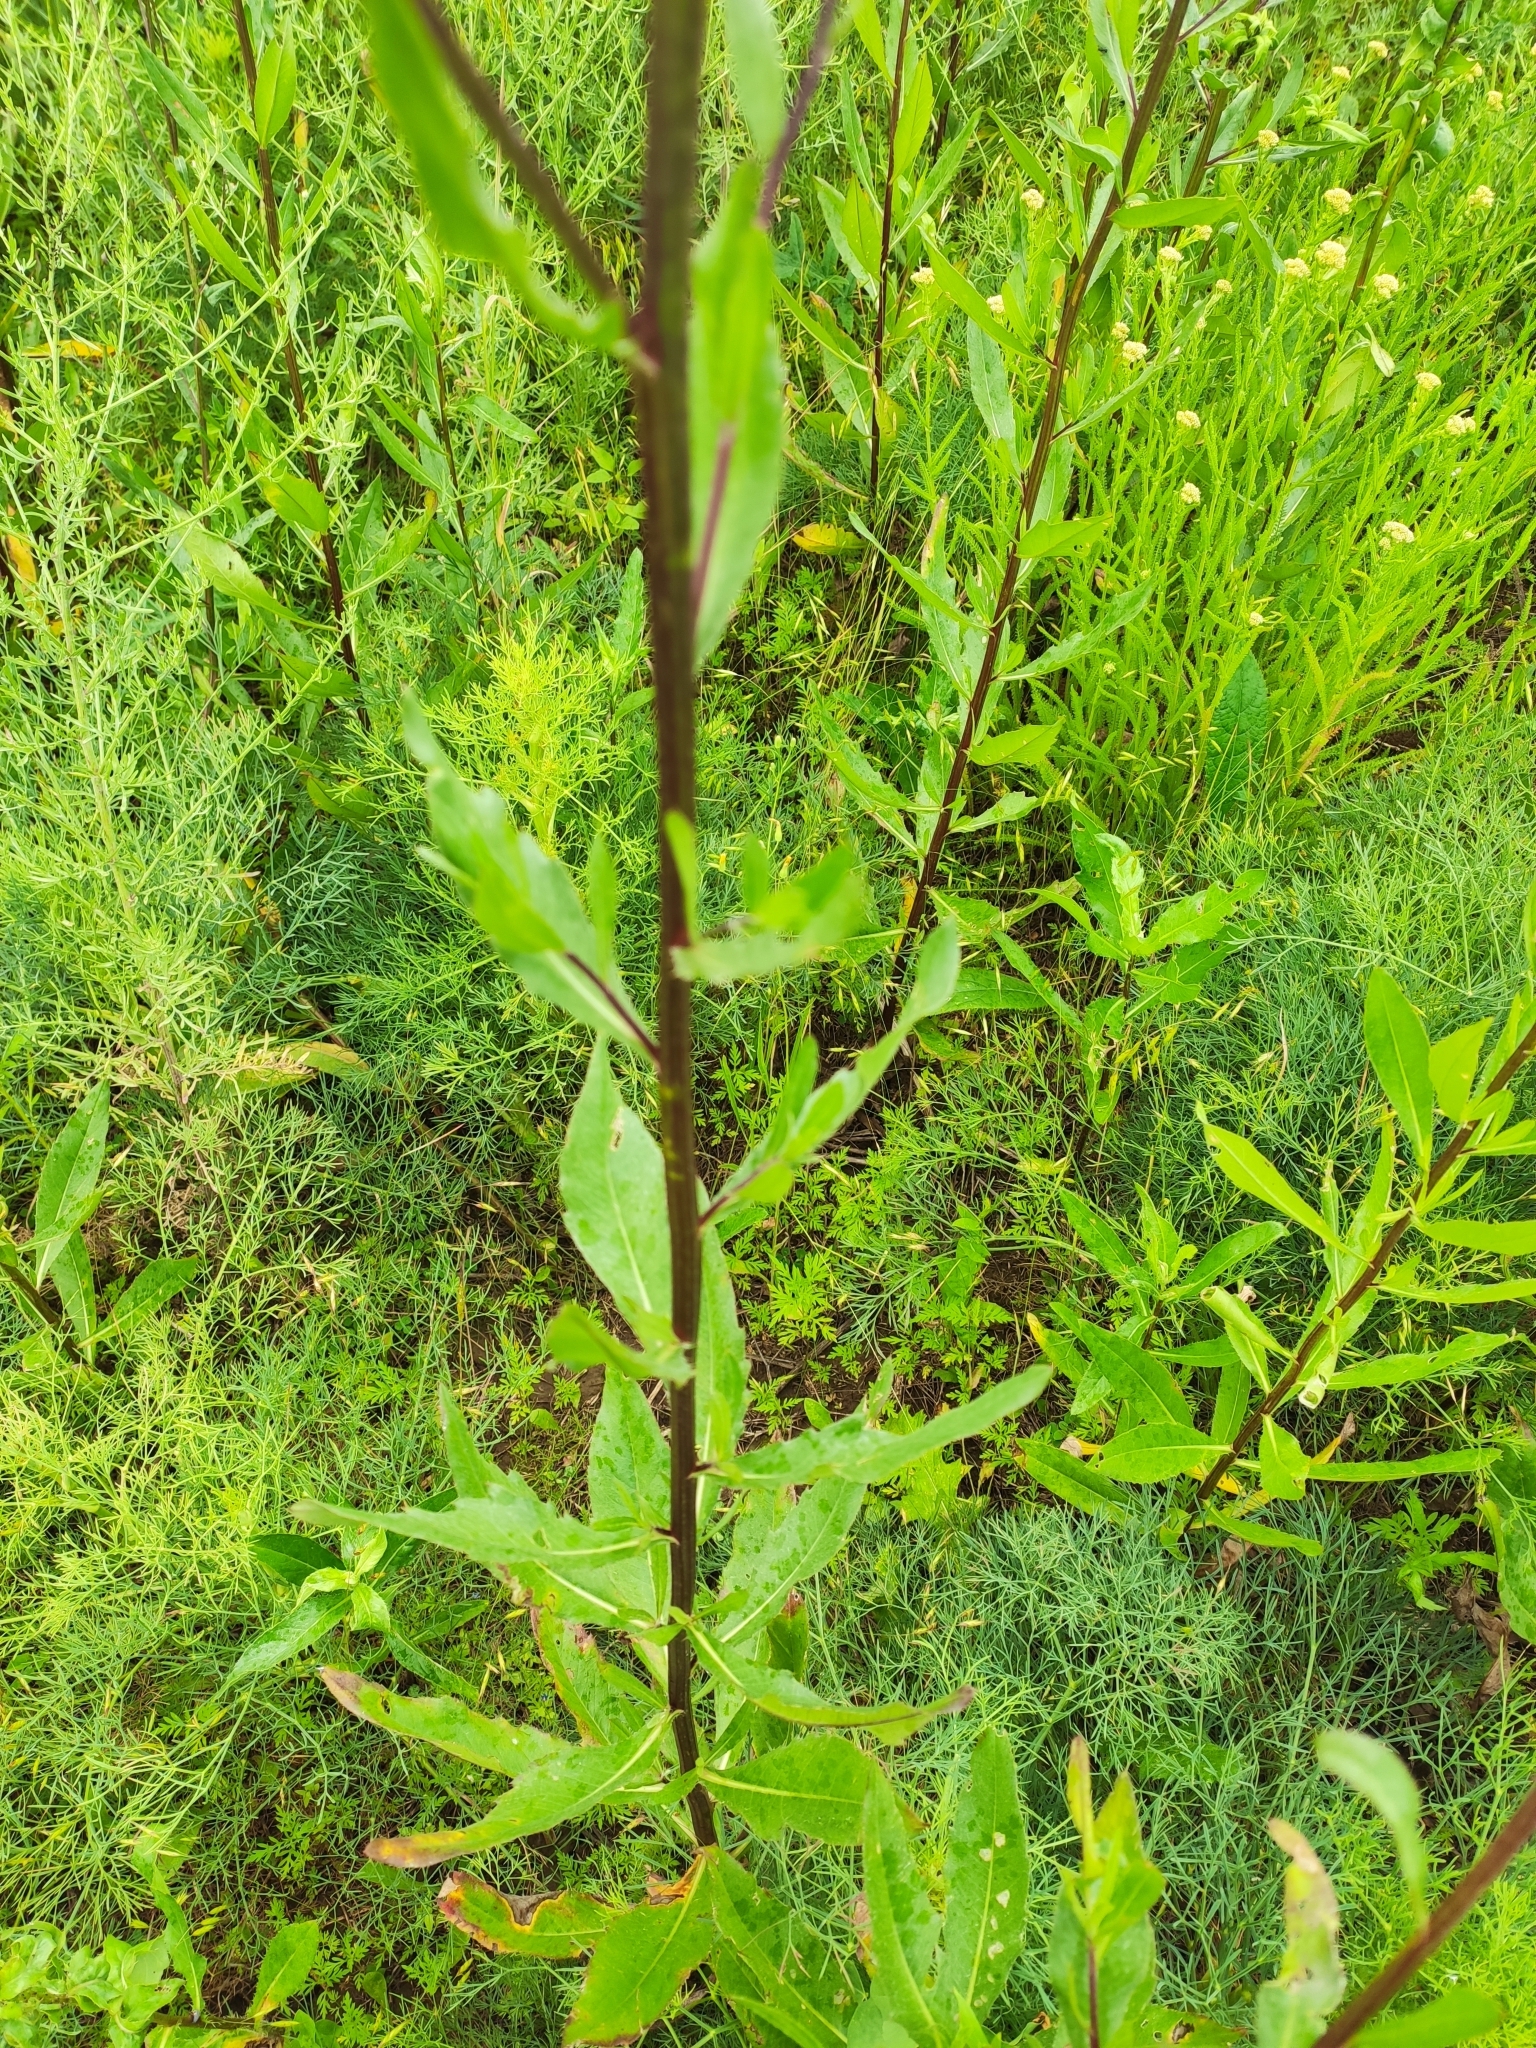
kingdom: Plantae
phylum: Tracheophyta
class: Magnoliopsida
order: Asterales
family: Asteraceae
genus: Cirsium
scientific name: Cirsium arvense
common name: Creeping thistle
